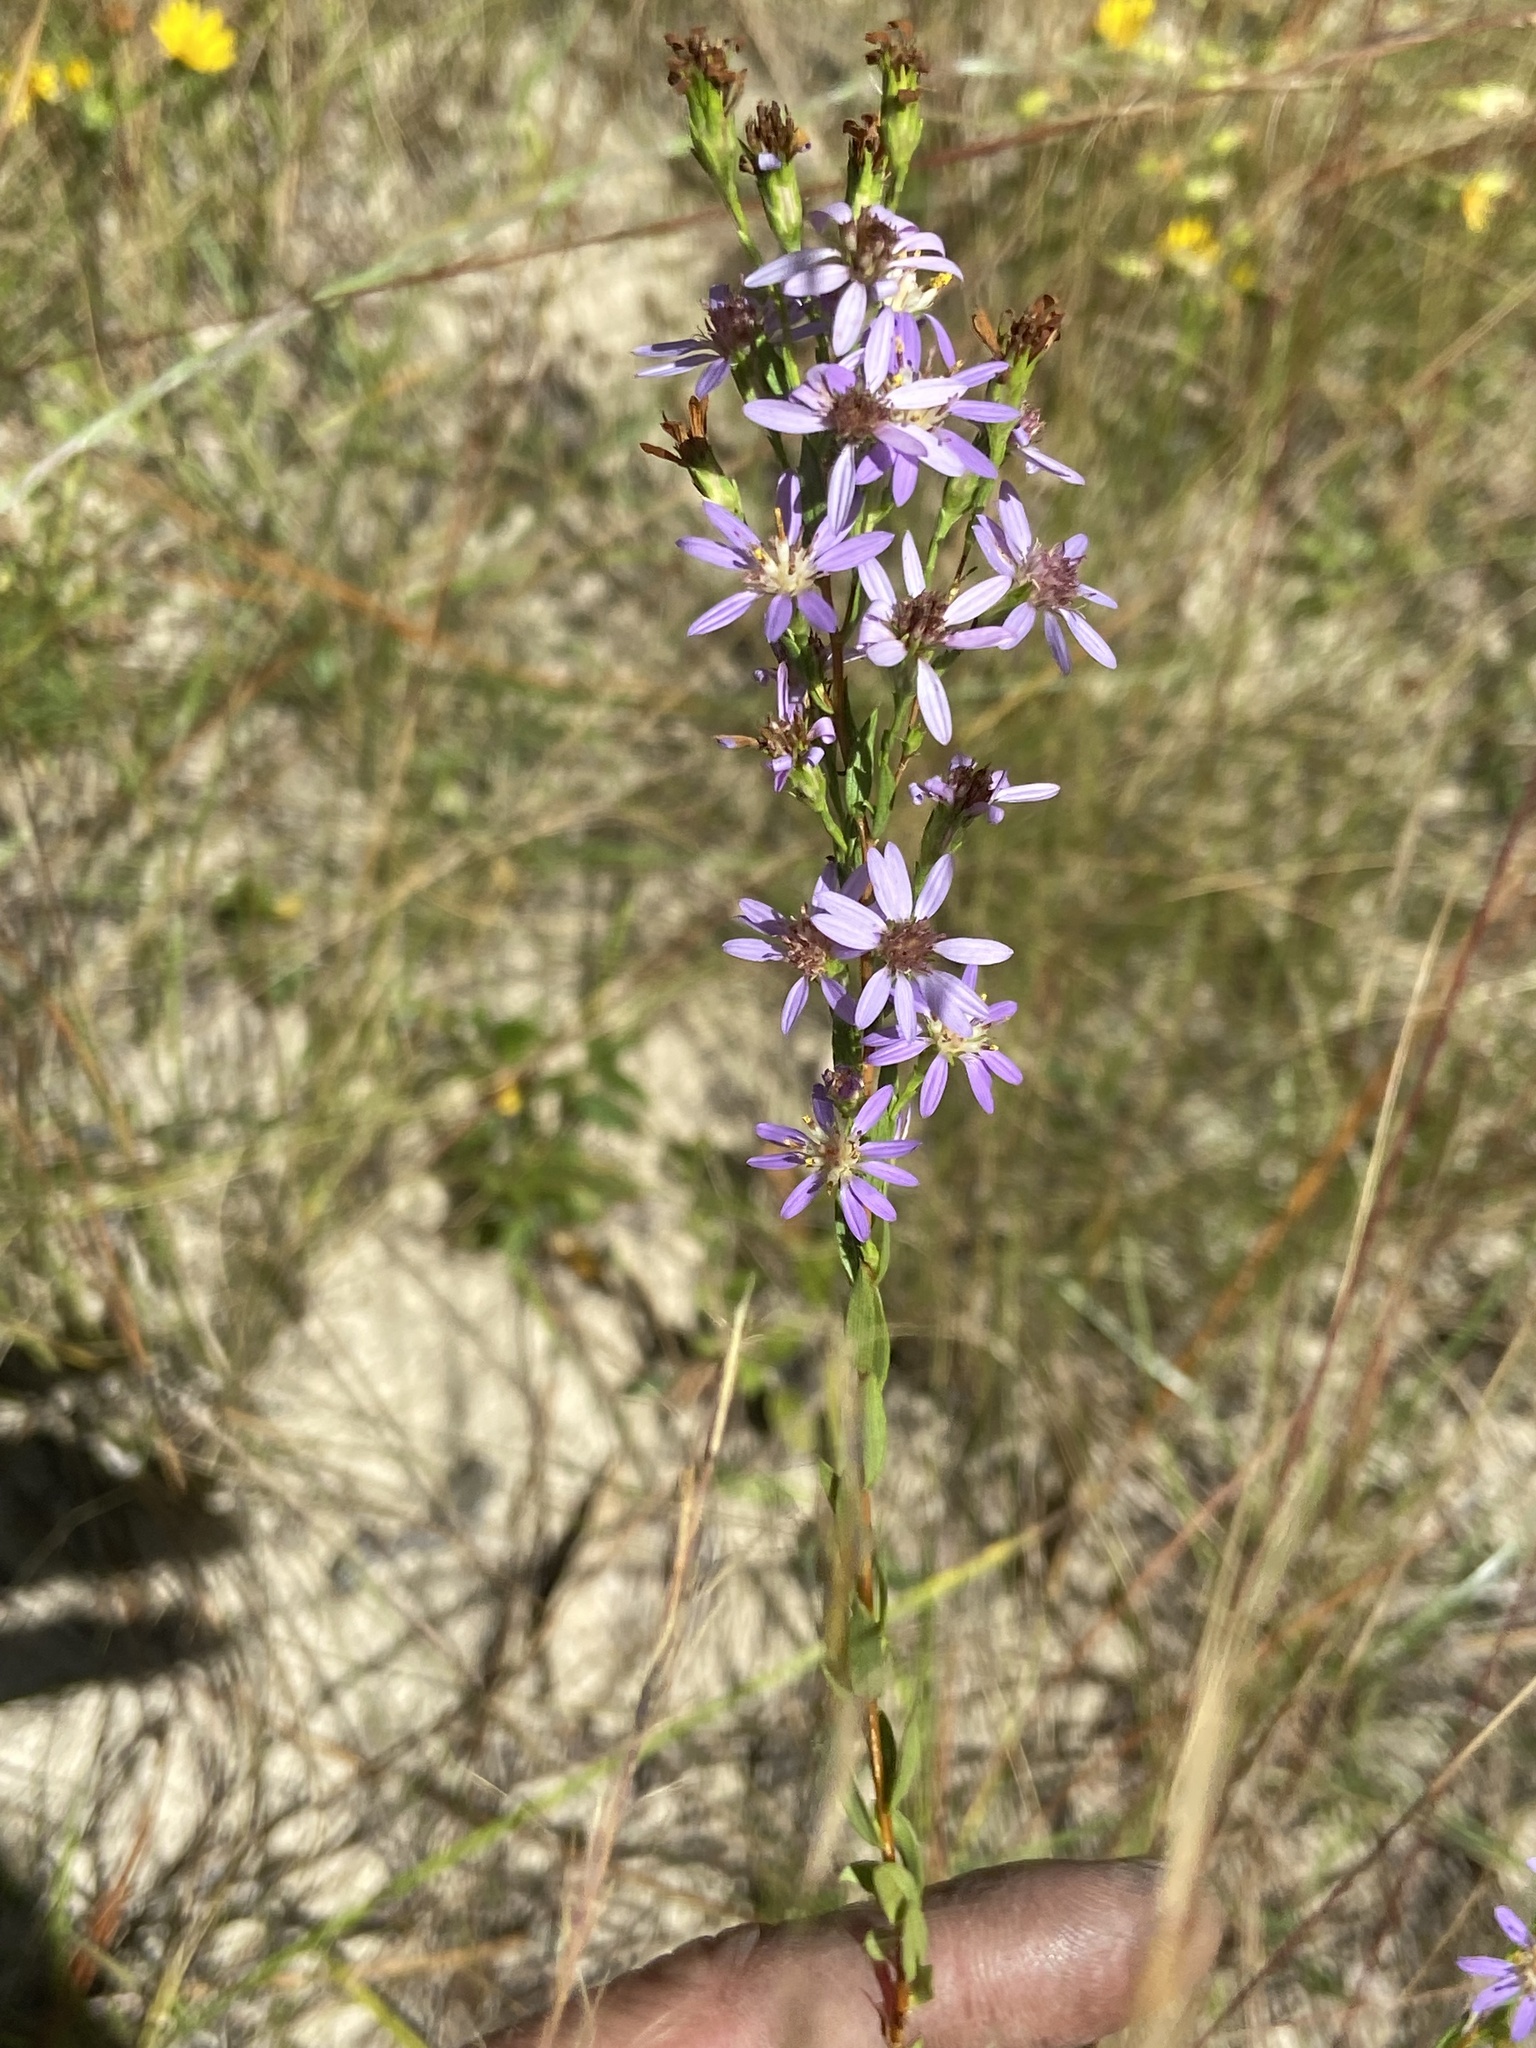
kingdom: Plantae
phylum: Tracheophyta
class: Magnoliopsida
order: Asterales
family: Asteraceae
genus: Symphyotrichum
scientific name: Symphyotrichum concolor
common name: Eastern silver aster
